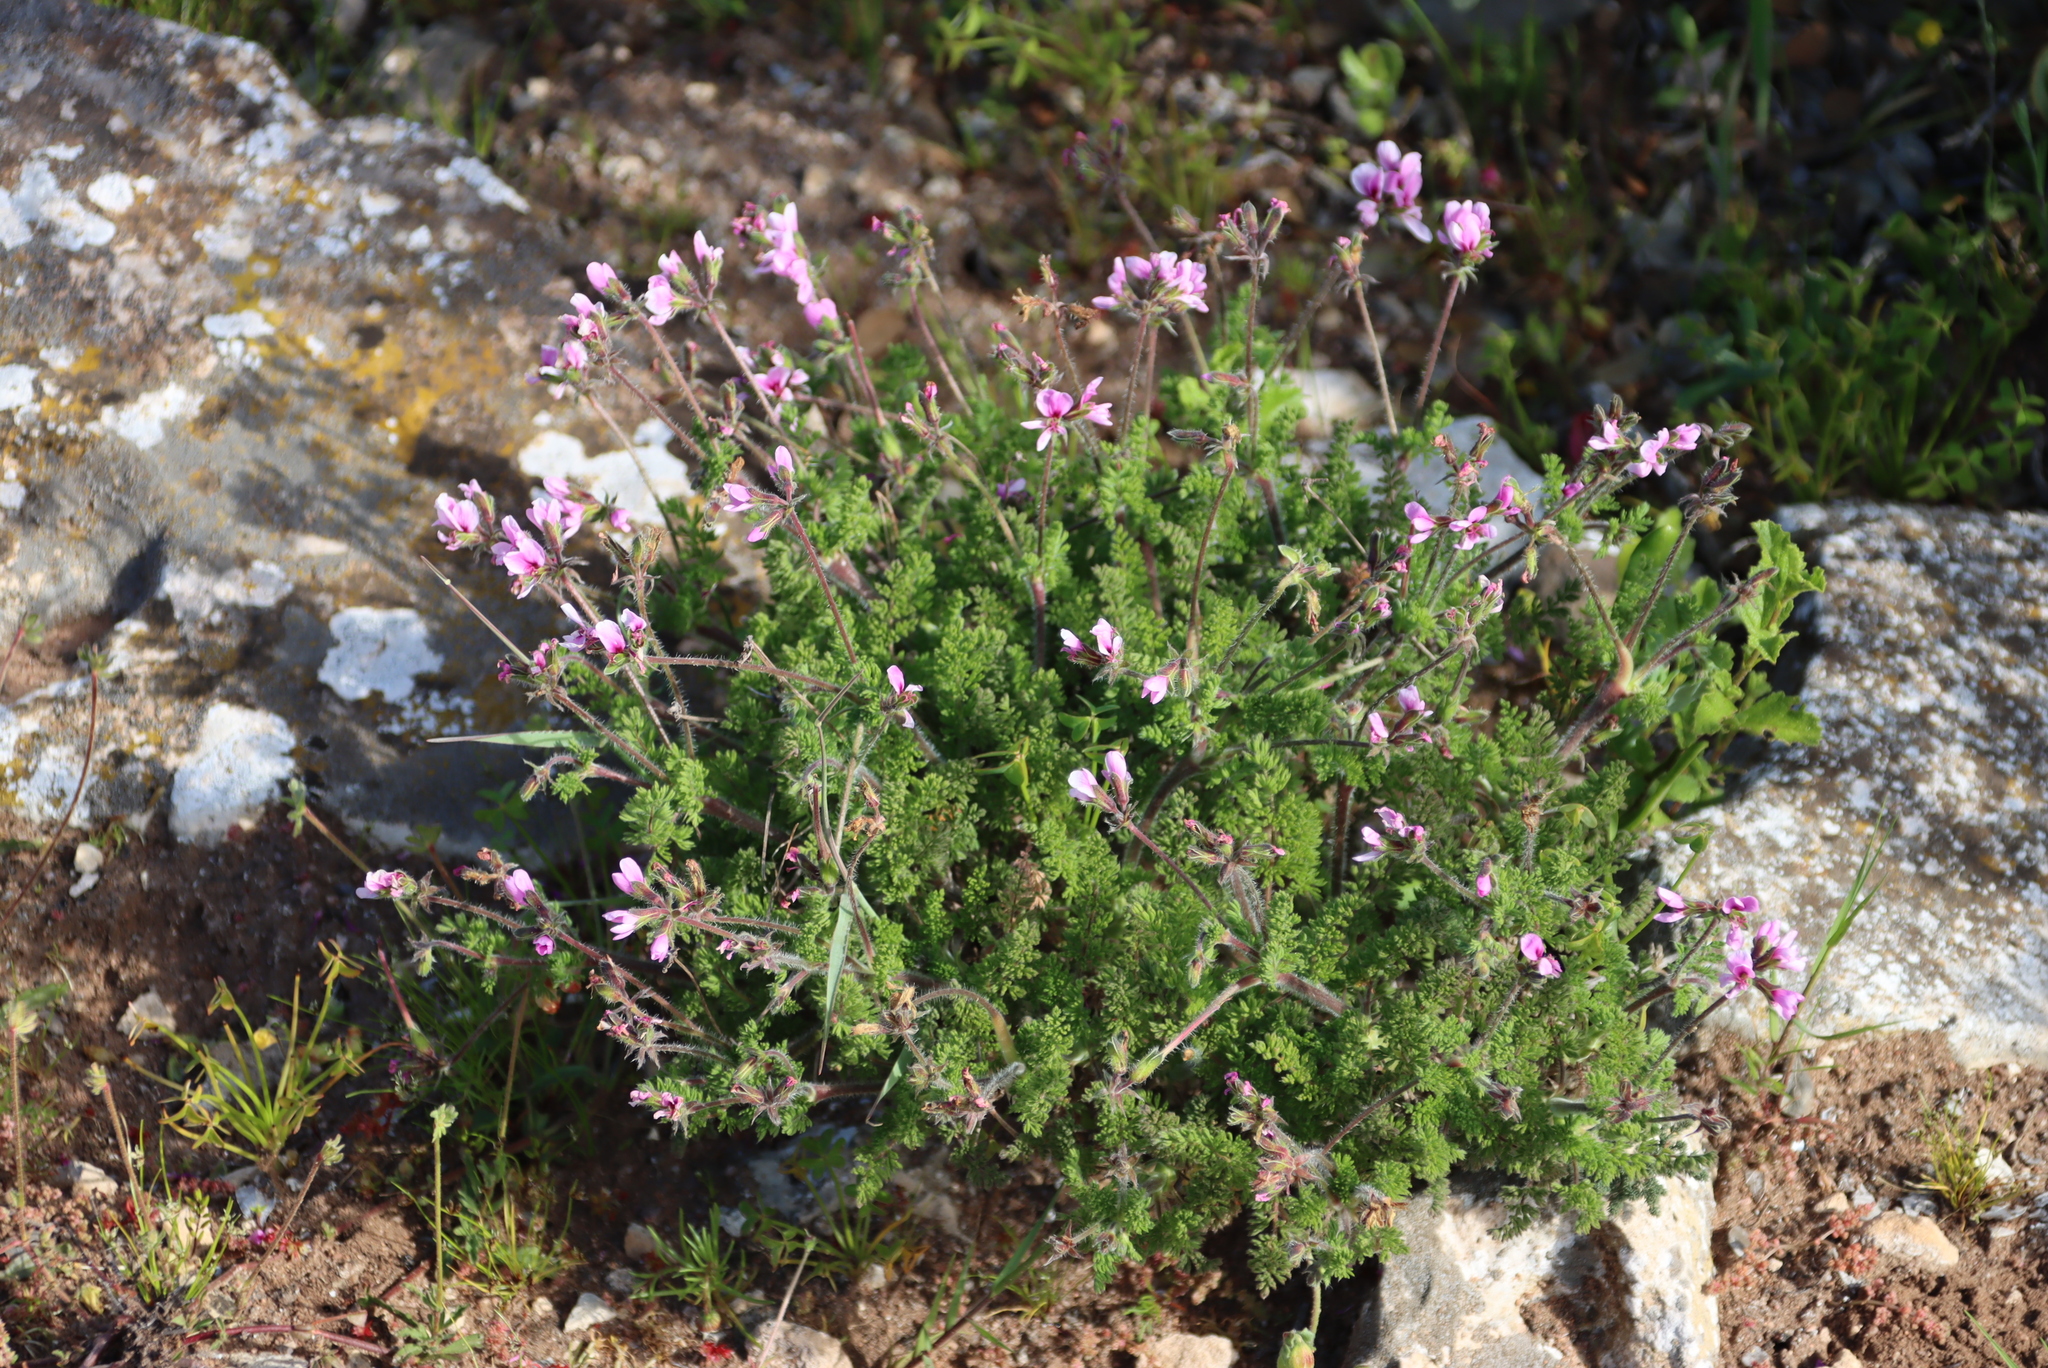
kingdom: Plantae
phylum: Tracheophyta
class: Magnoliopsida
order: Geraniales
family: Geraniaceae
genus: Pelargonium
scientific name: Pelargonium hirtum
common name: Fine-leaf pelargonium
